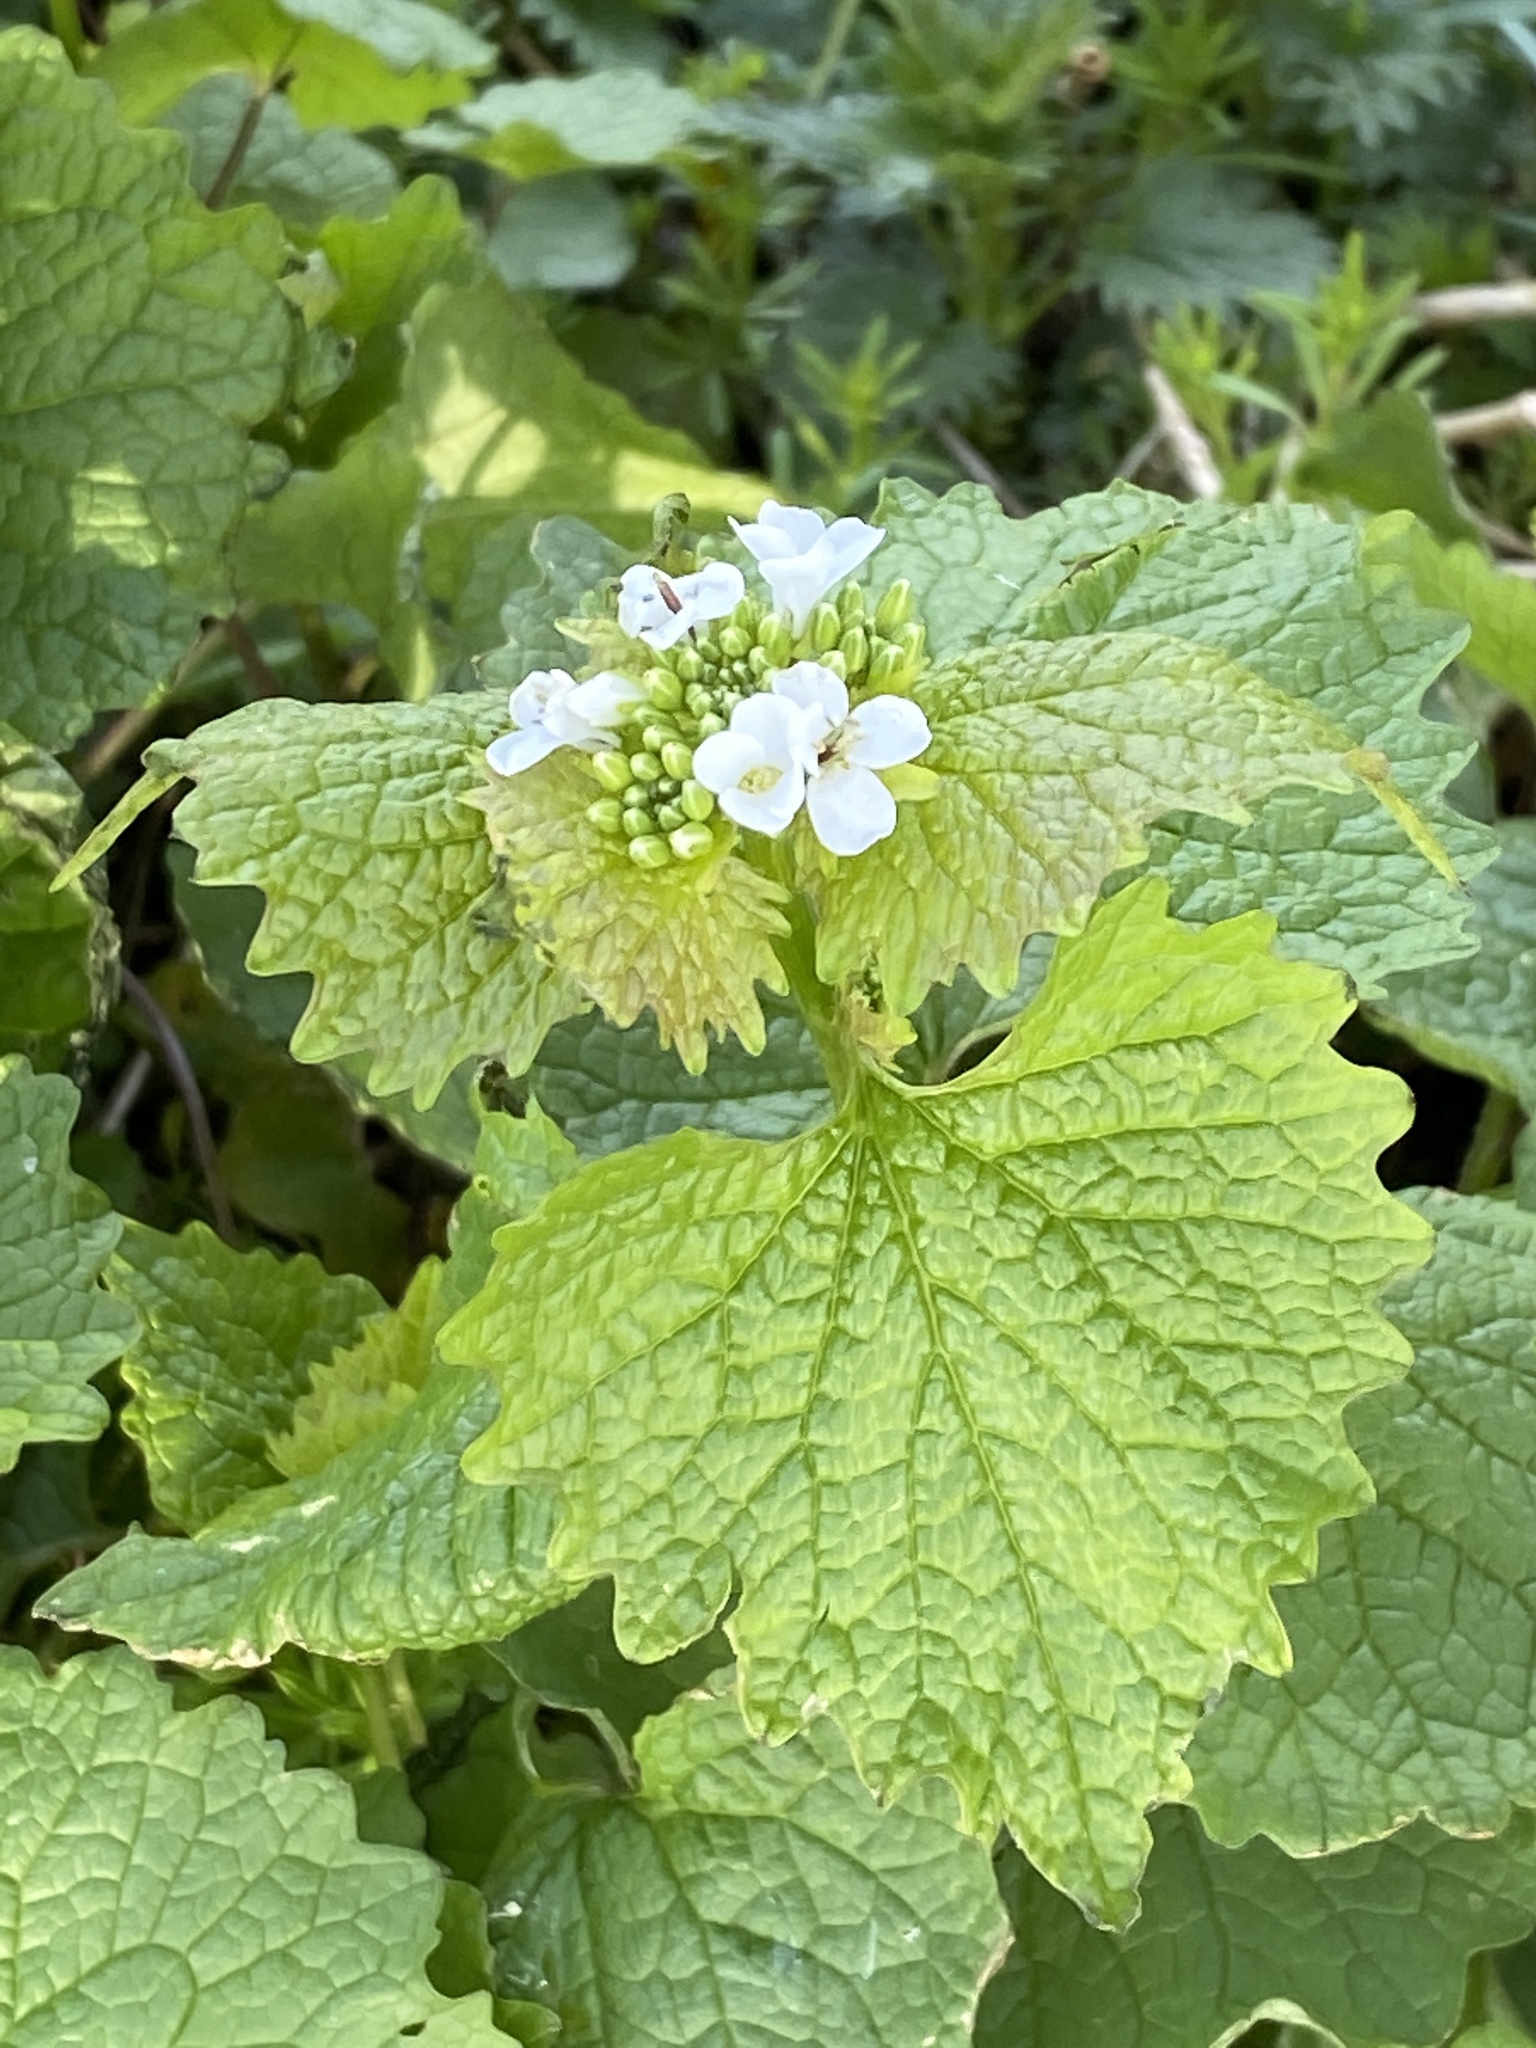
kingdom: Plantae
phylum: Tracheophyta
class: Magnoliopsida
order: Brassicales
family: Brassicaceae
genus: Alliaria
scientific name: Alliaria petiolata
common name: Garlic mustard
